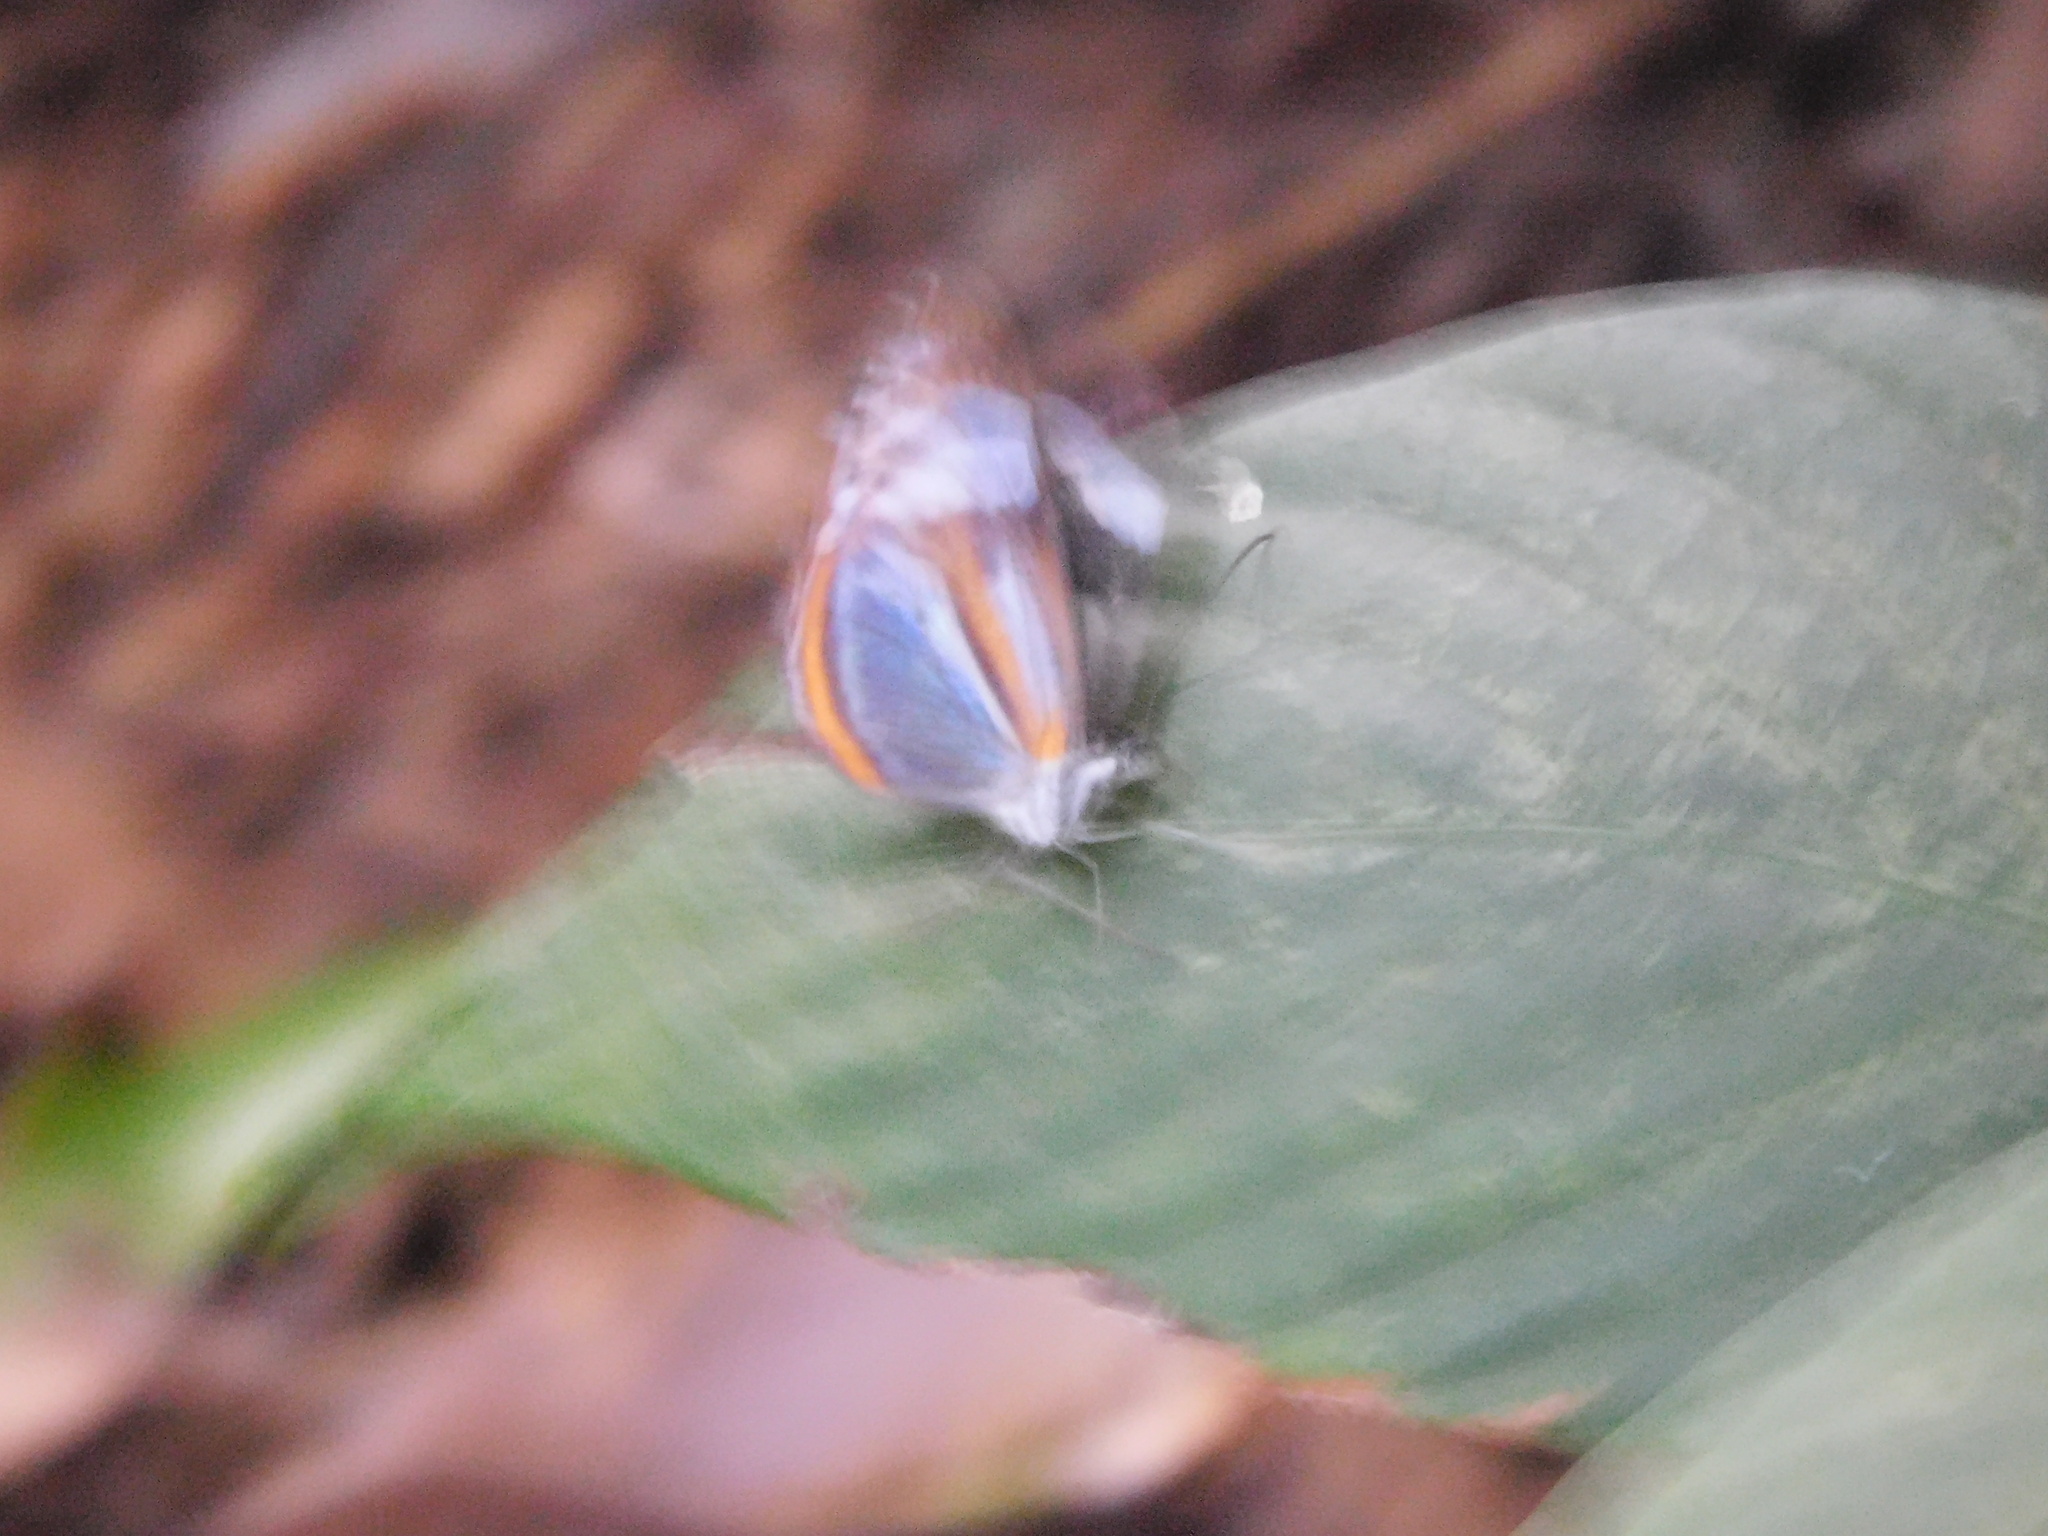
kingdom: Animalia
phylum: Arthropoda
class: Insecta
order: Lepidoptera
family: Pieridae
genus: Dismorphia
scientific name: Dismorphia theucharila
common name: Clearwing mimic-white
